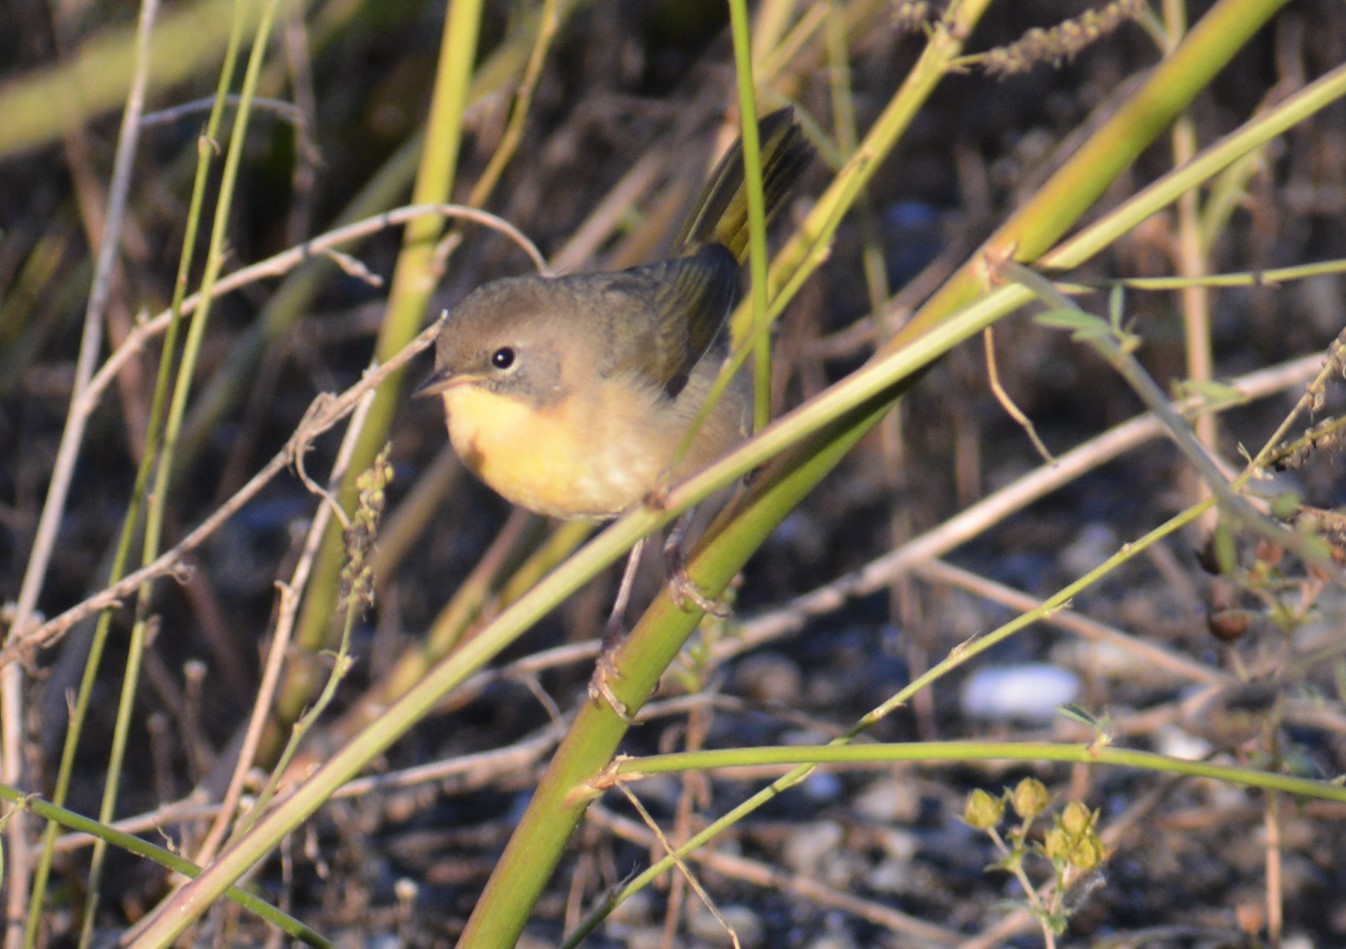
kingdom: Animalia
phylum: Chordata
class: Aves
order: Passeriformes
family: Parulidae
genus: Geothlypis
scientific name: Geothlypis trichas
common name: Common yellowthroat
